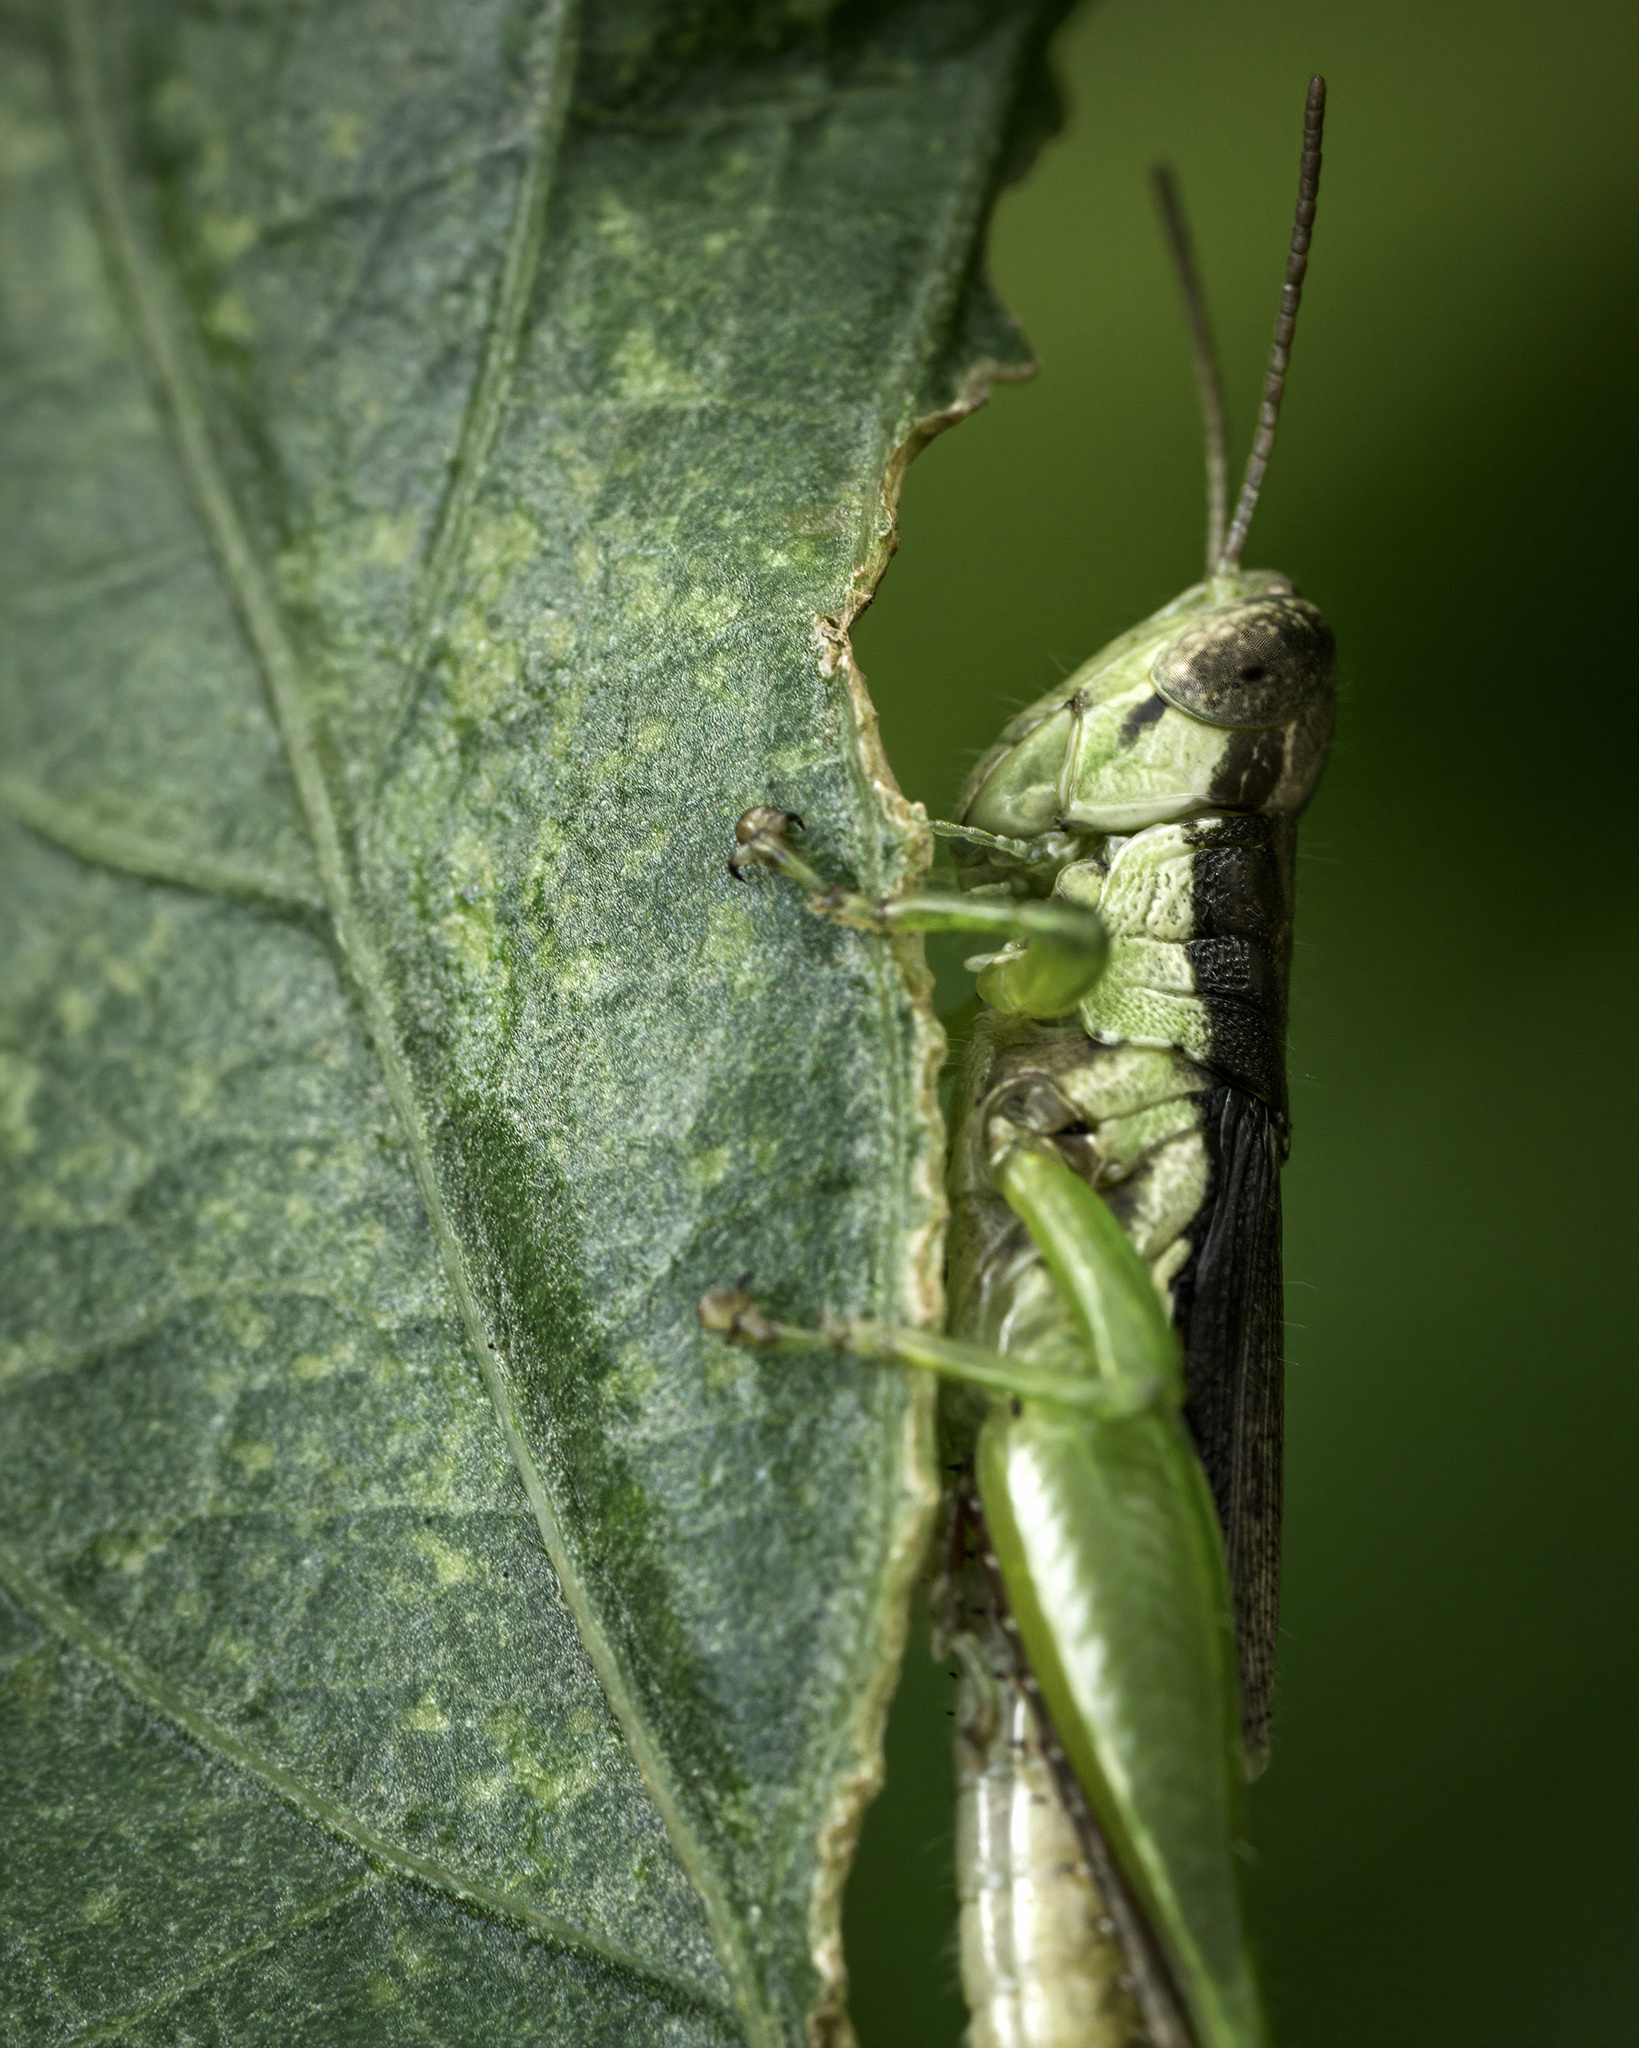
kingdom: Animalia
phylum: Arthropoda
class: Insecta
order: Orthoptera
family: Acrididae
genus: Pseudoxya
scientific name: Pseudoxya diminuta
